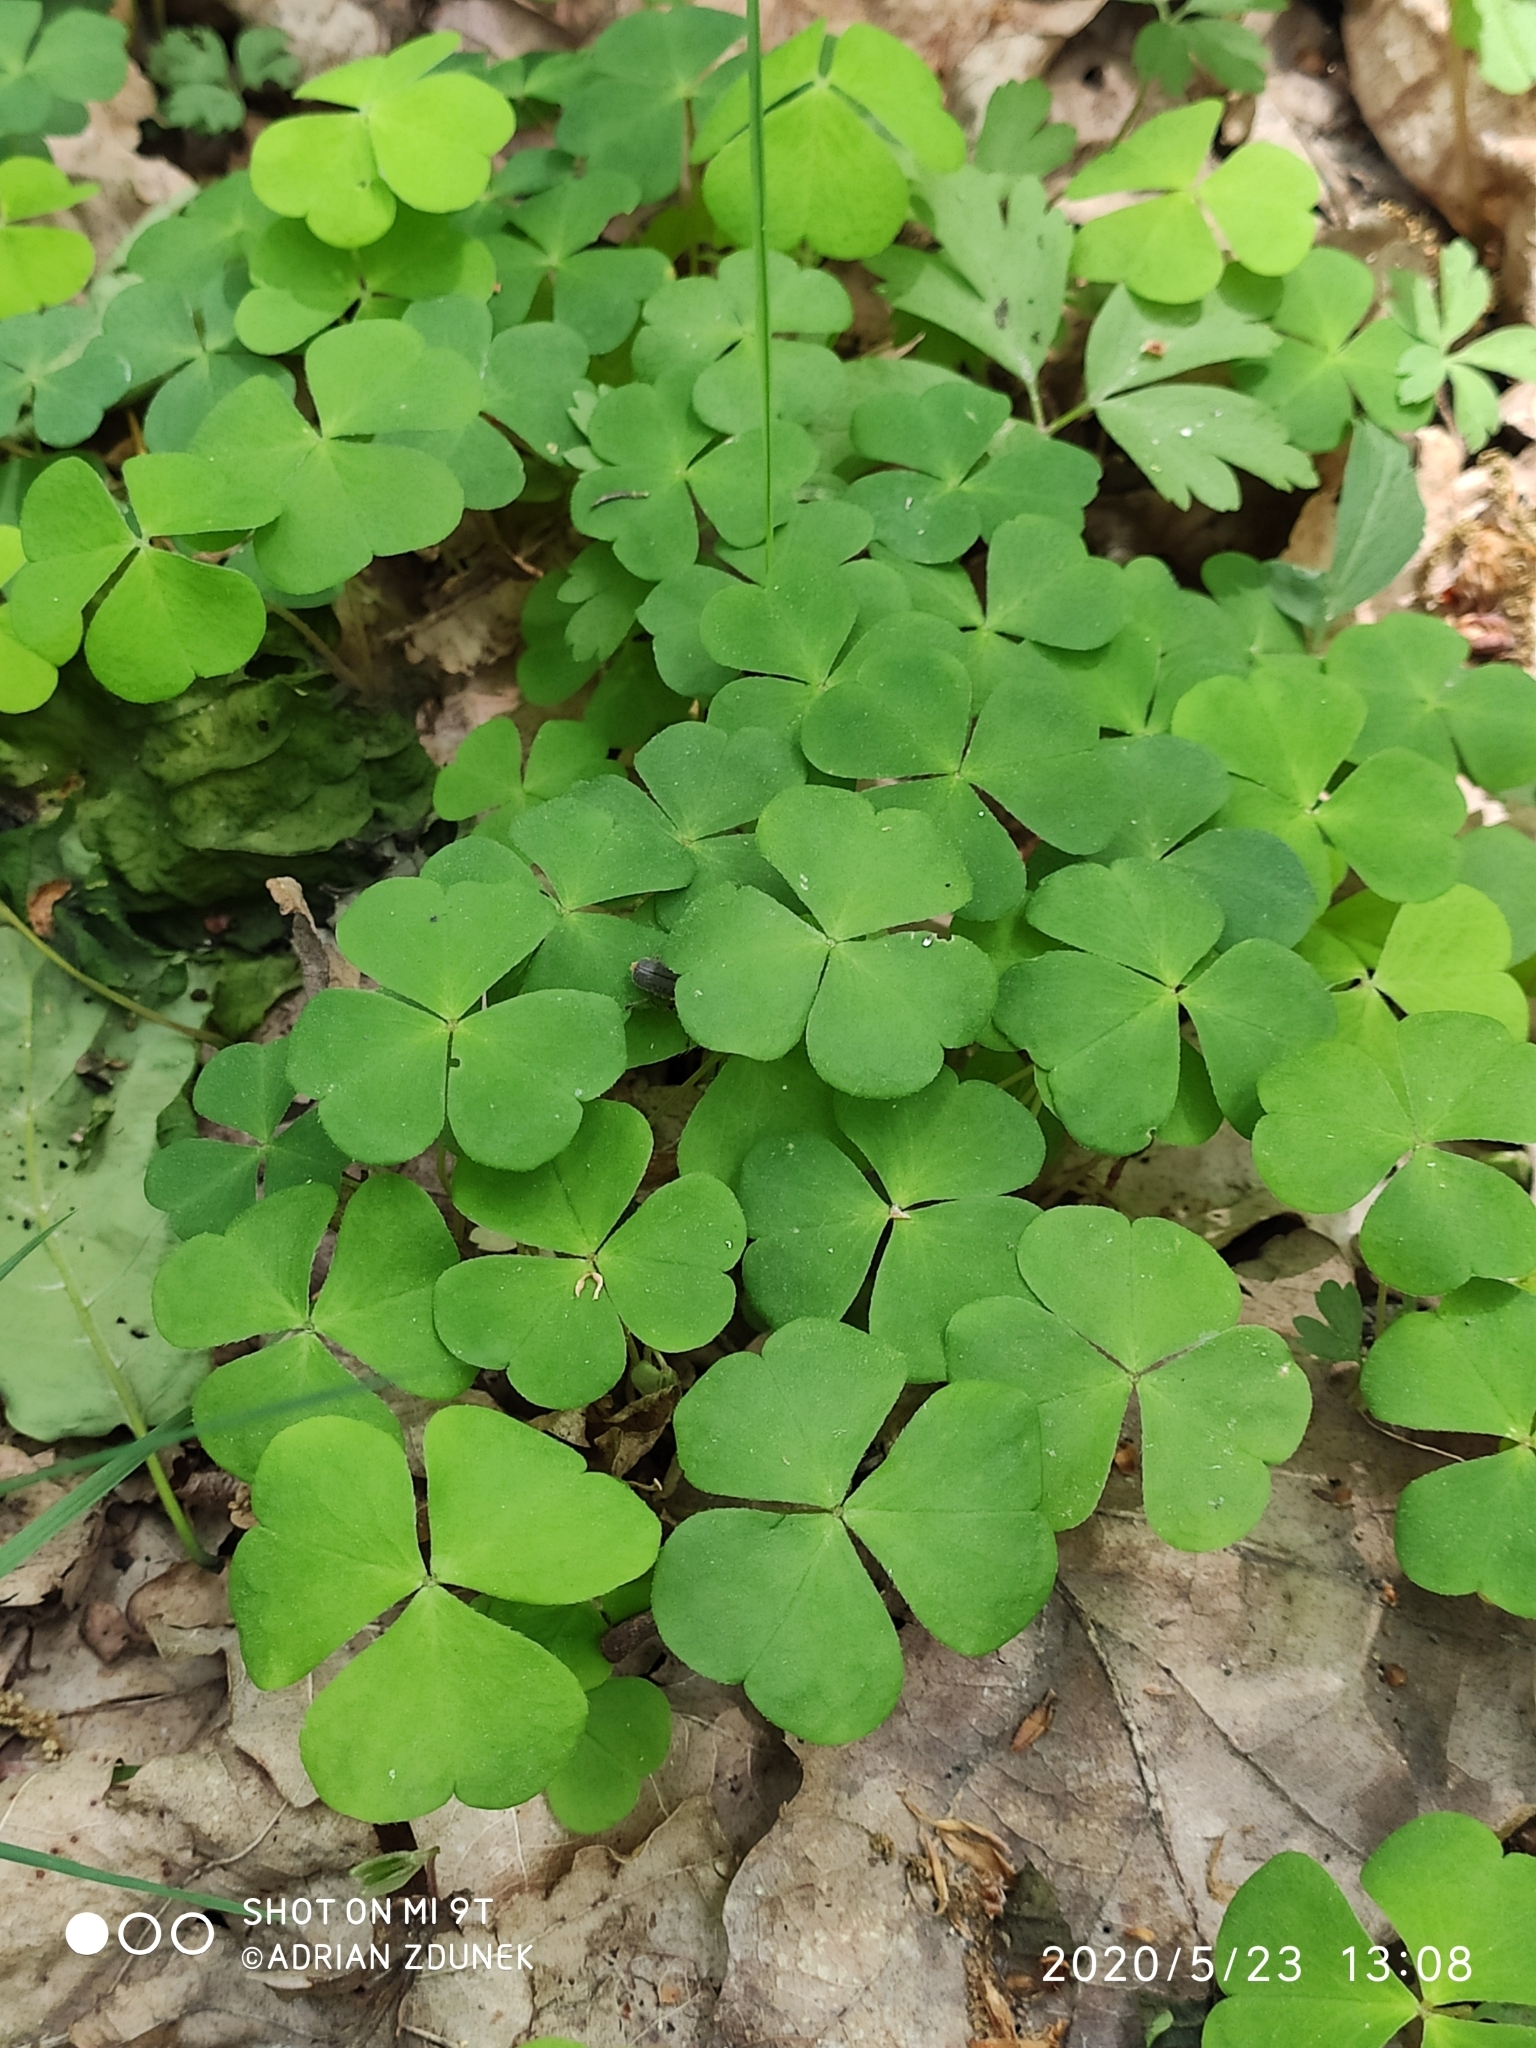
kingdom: Plantae
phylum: Tracheophyta
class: Magnoliopsida
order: Oxalidales
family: Oxalidaceae
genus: Oxalis
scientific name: Oxalis acetosella
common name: Wood-sorrel
